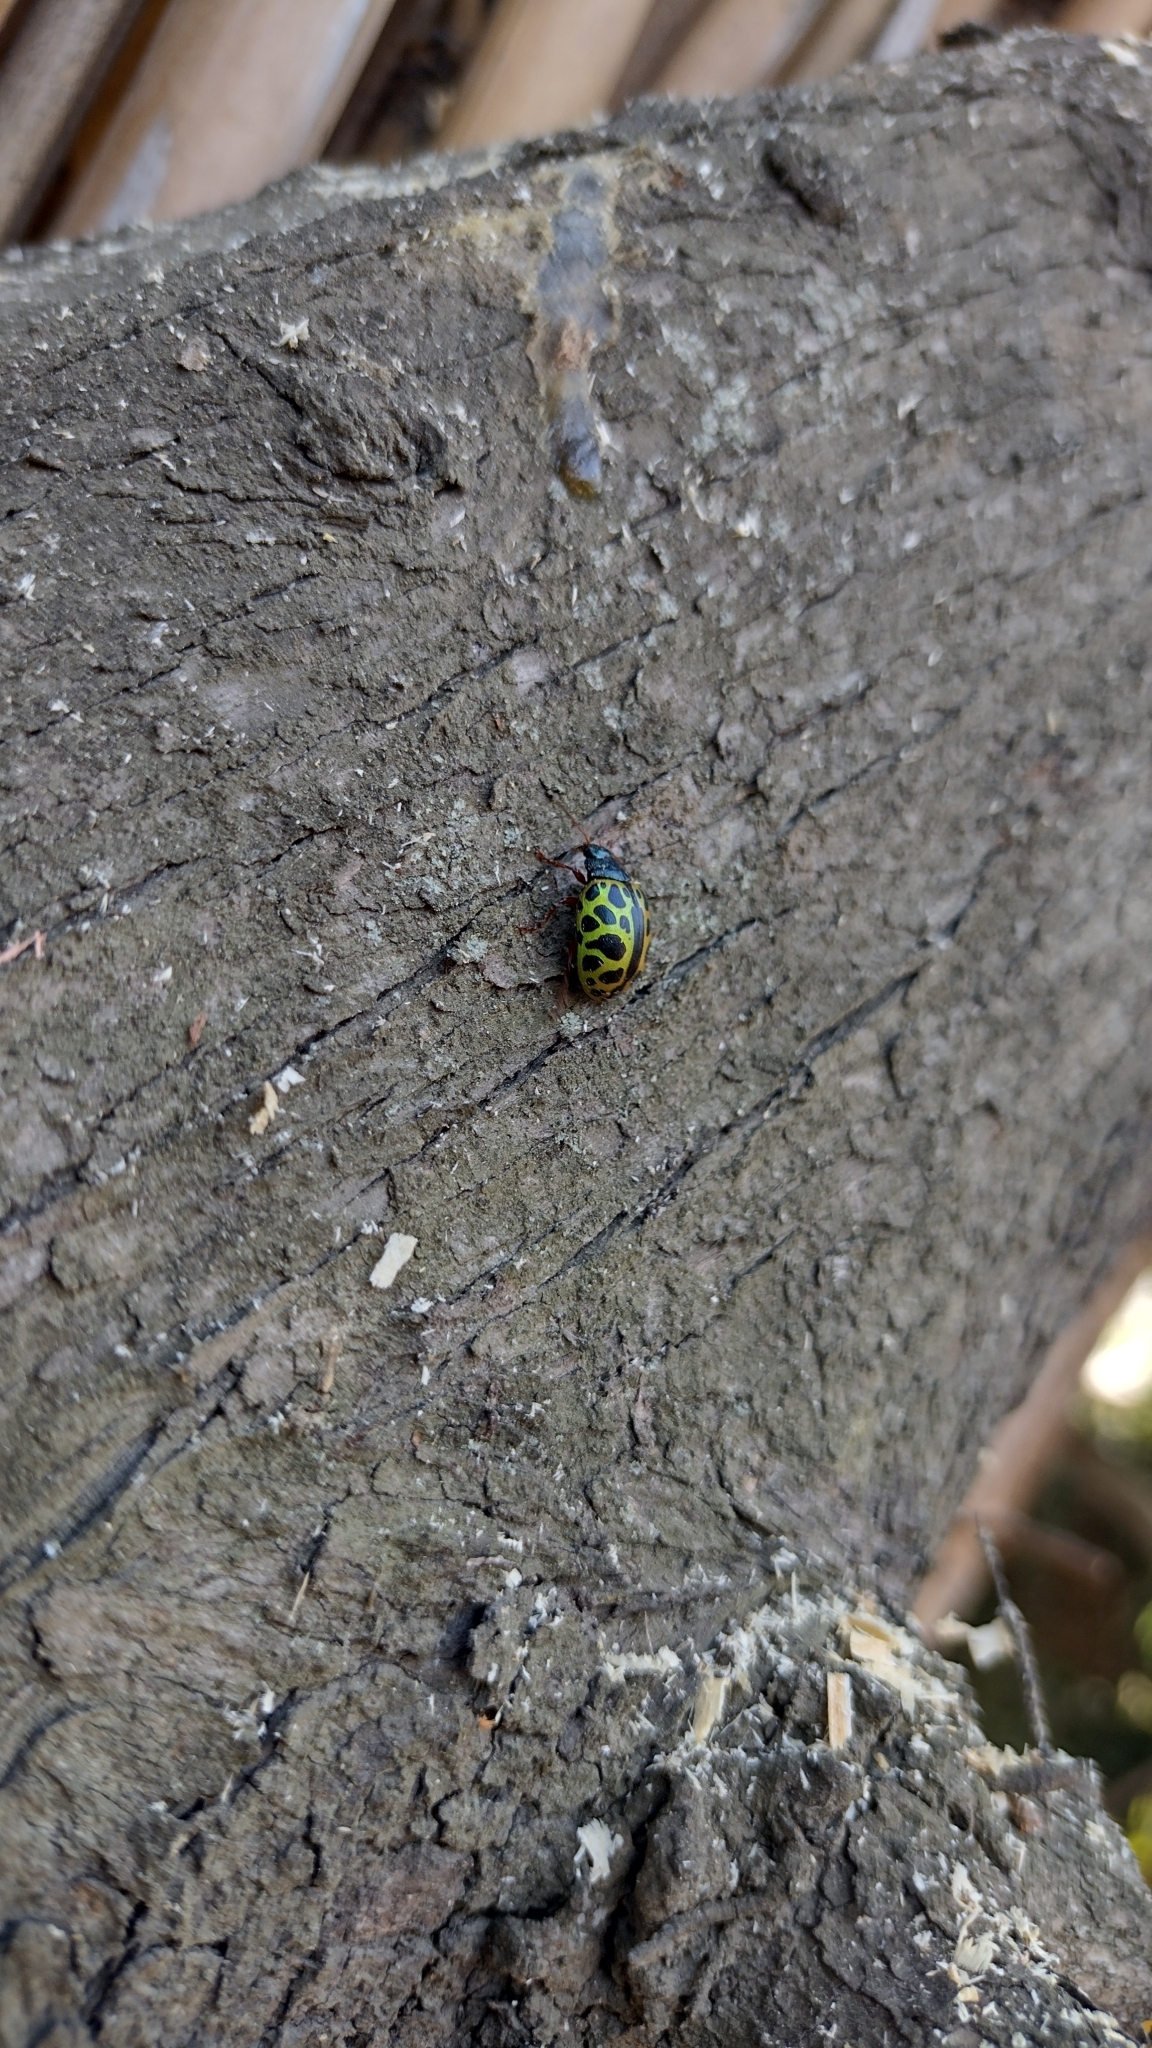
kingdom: Animalia
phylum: Arthropoda
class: Insecta
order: Coleoptera
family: Chrysomelidae
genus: Calligrapha
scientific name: Calligrapha polyspila
